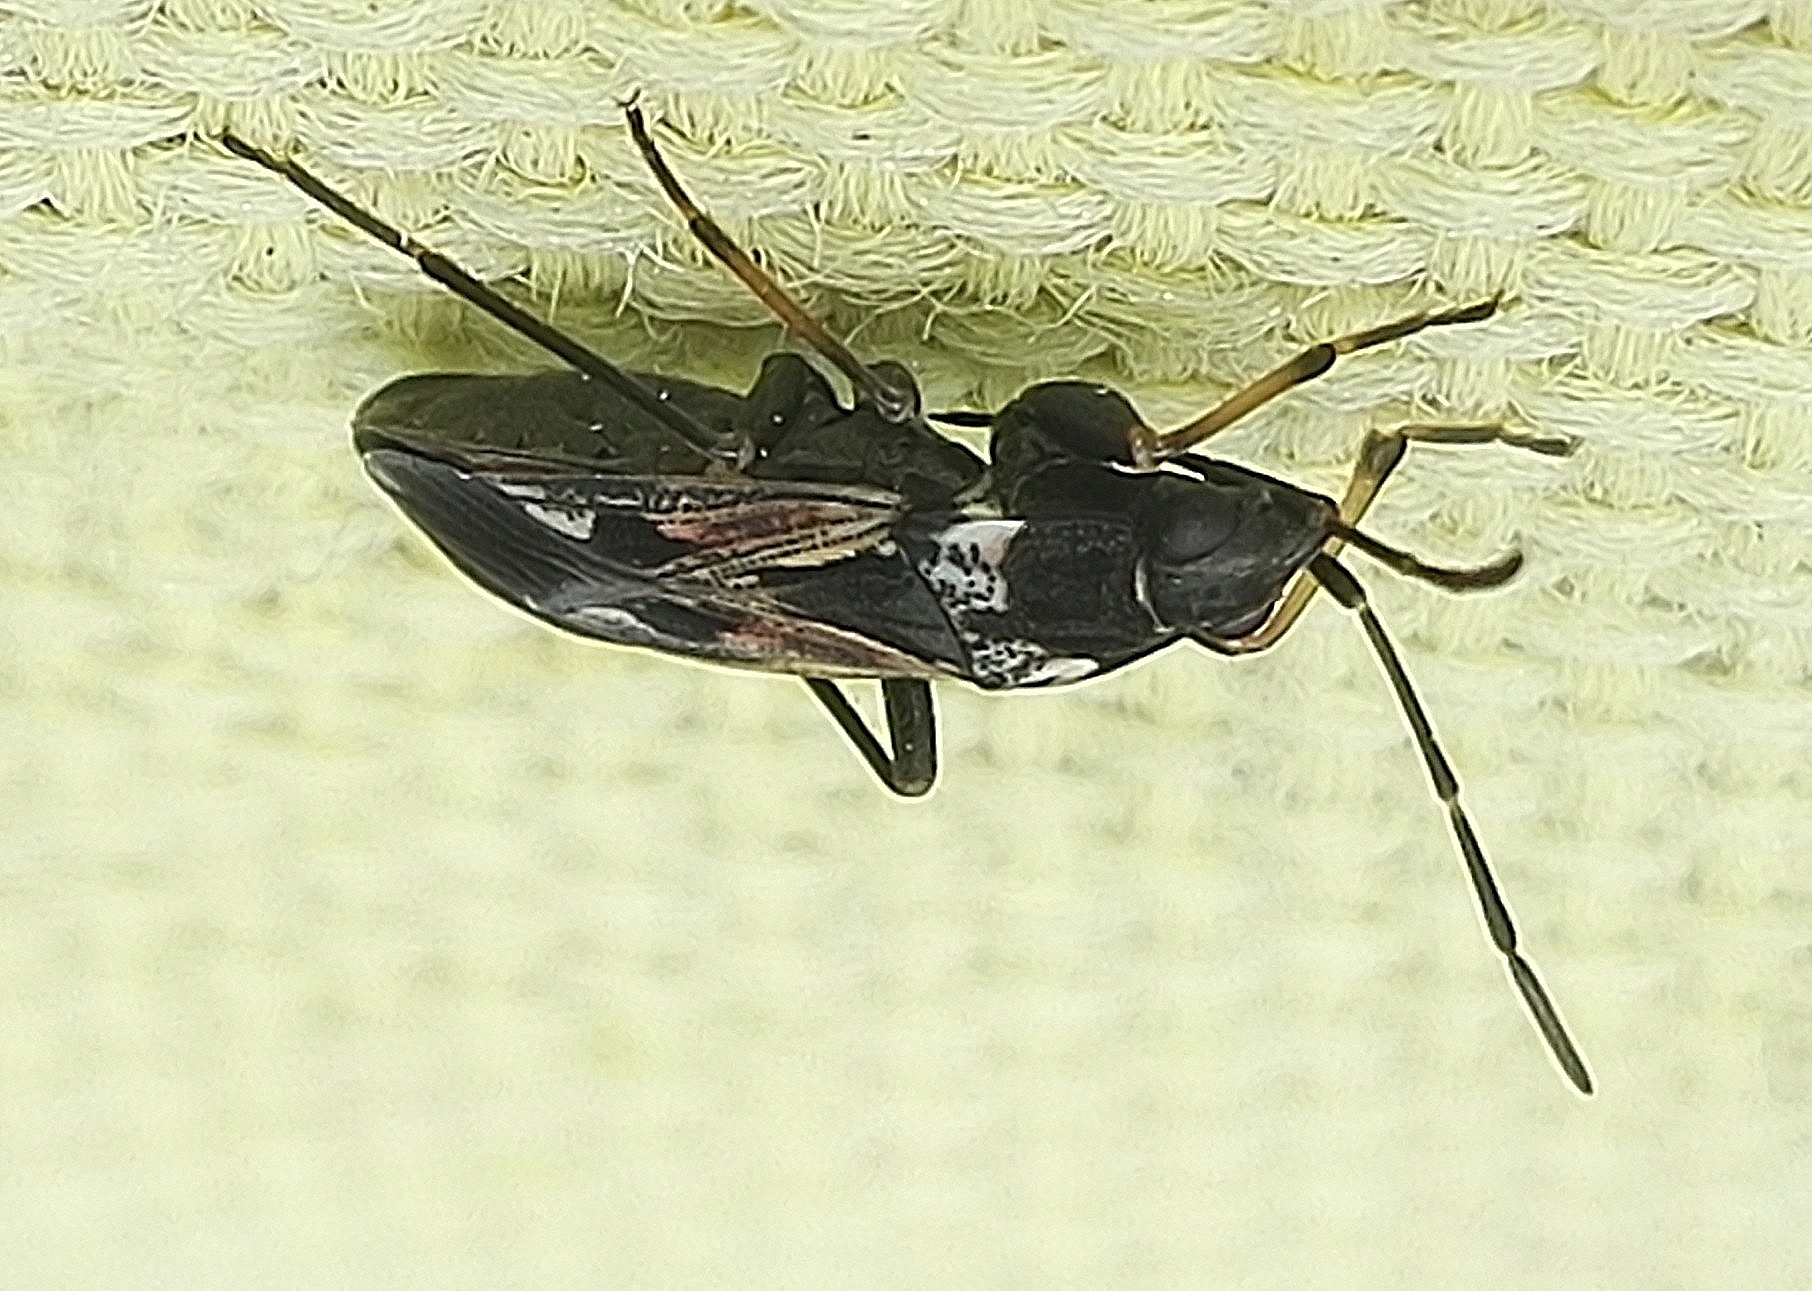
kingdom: Animalia
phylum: Arthropoda
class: Insecta
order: Hemiptera
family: Rhyparochromidae
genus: Rhyparochromus
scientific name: Rhyparochromus vulgaris
